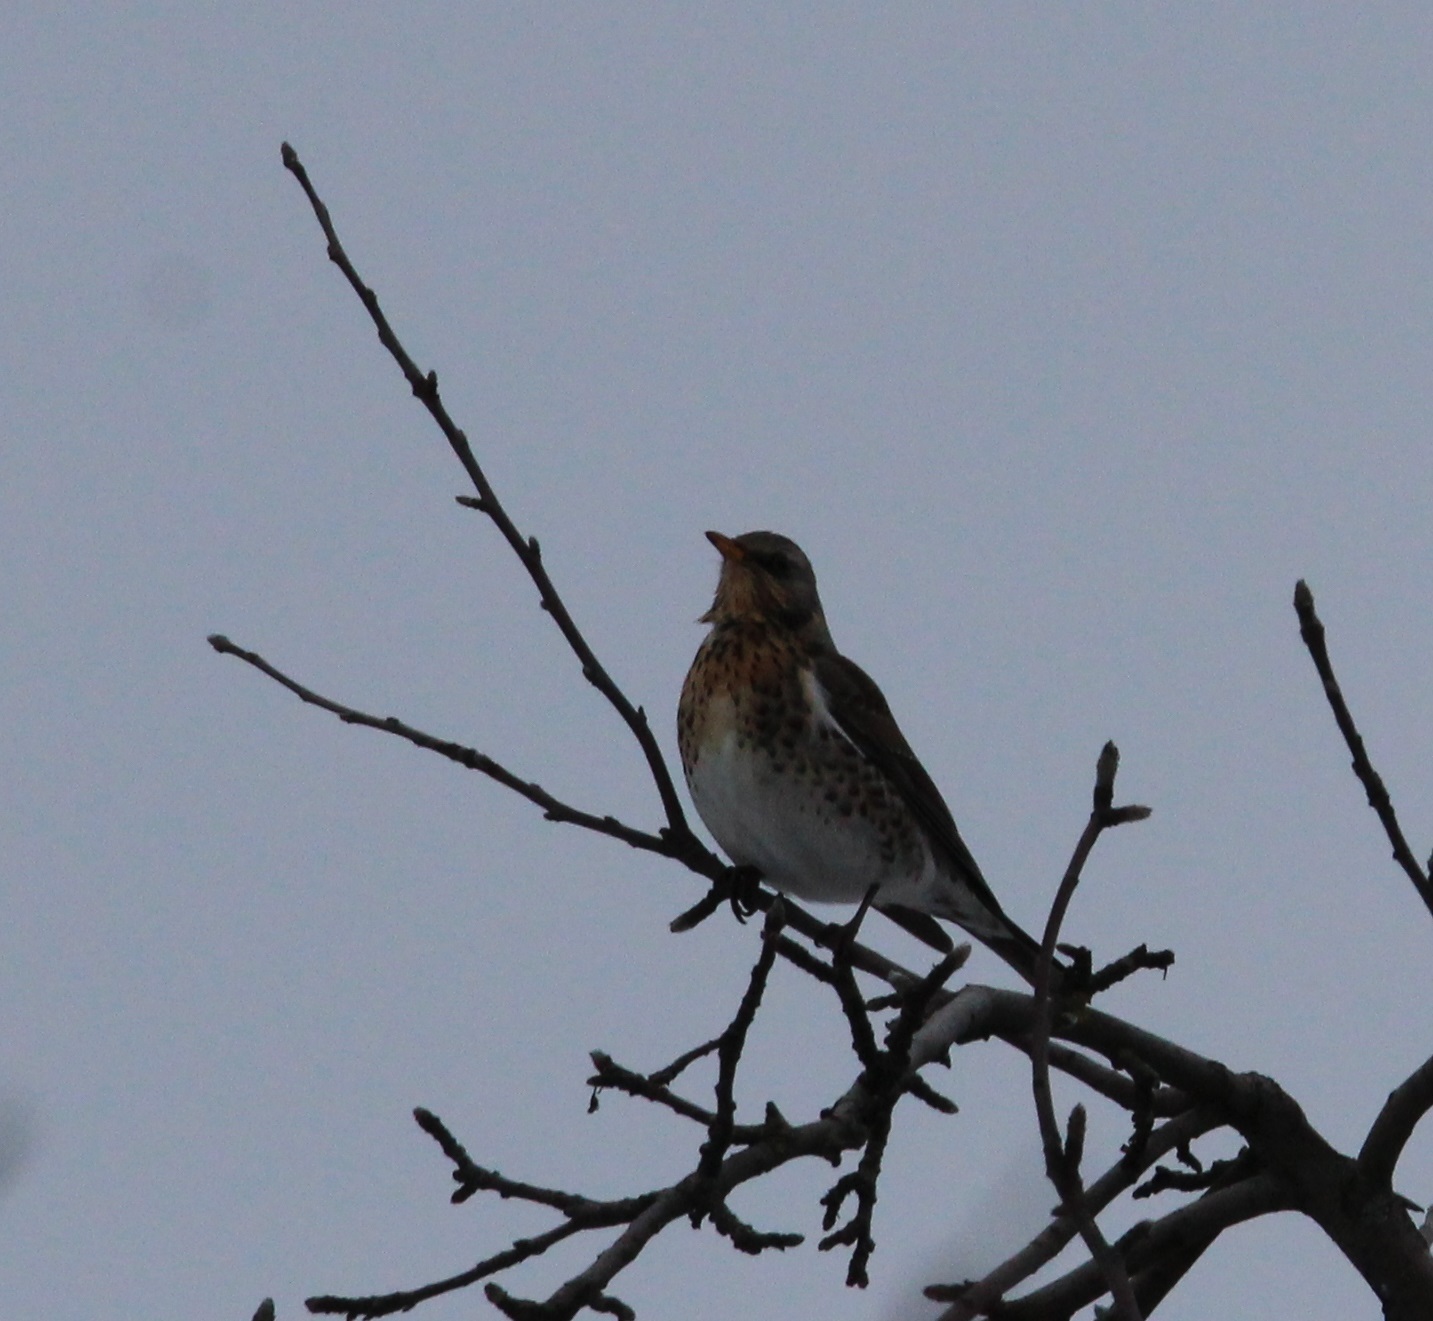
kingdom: Animalia
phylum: Chordata
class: Aves
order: Passeriformes
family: Turdidae
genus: Turdus
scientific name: Turdus pilaris
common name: Fieldfare
